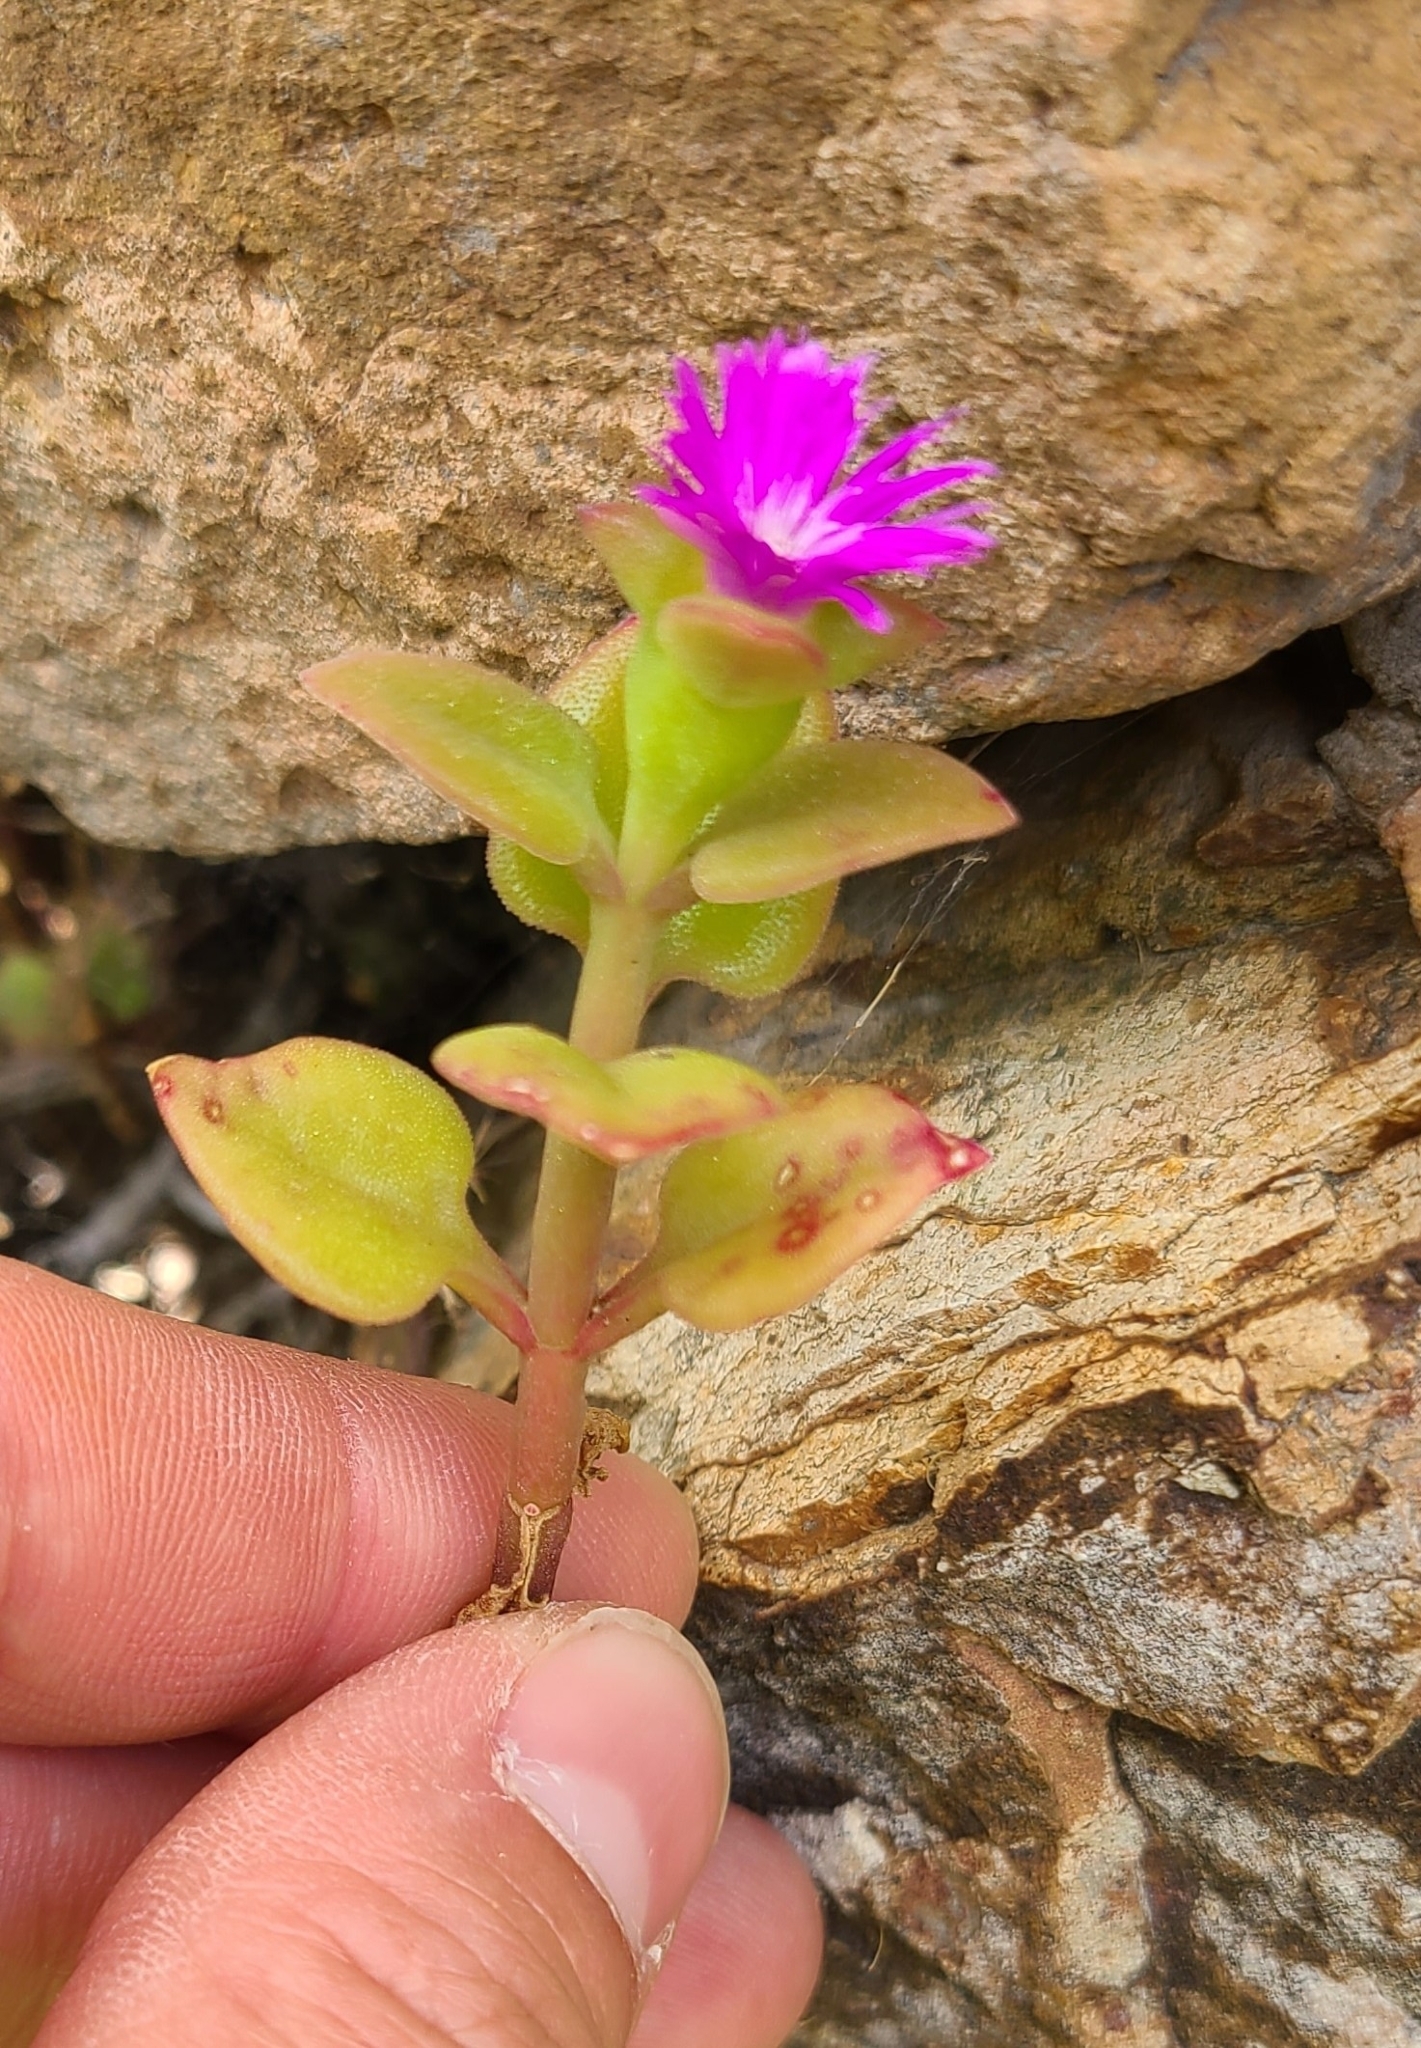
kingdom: Plantae
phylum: Tracheophyta
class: Magnoliopsida
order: Caryophyllales
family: Aizoaceae
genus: Mesembryanthemum
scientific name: Mesembryanthemum cordifolium
